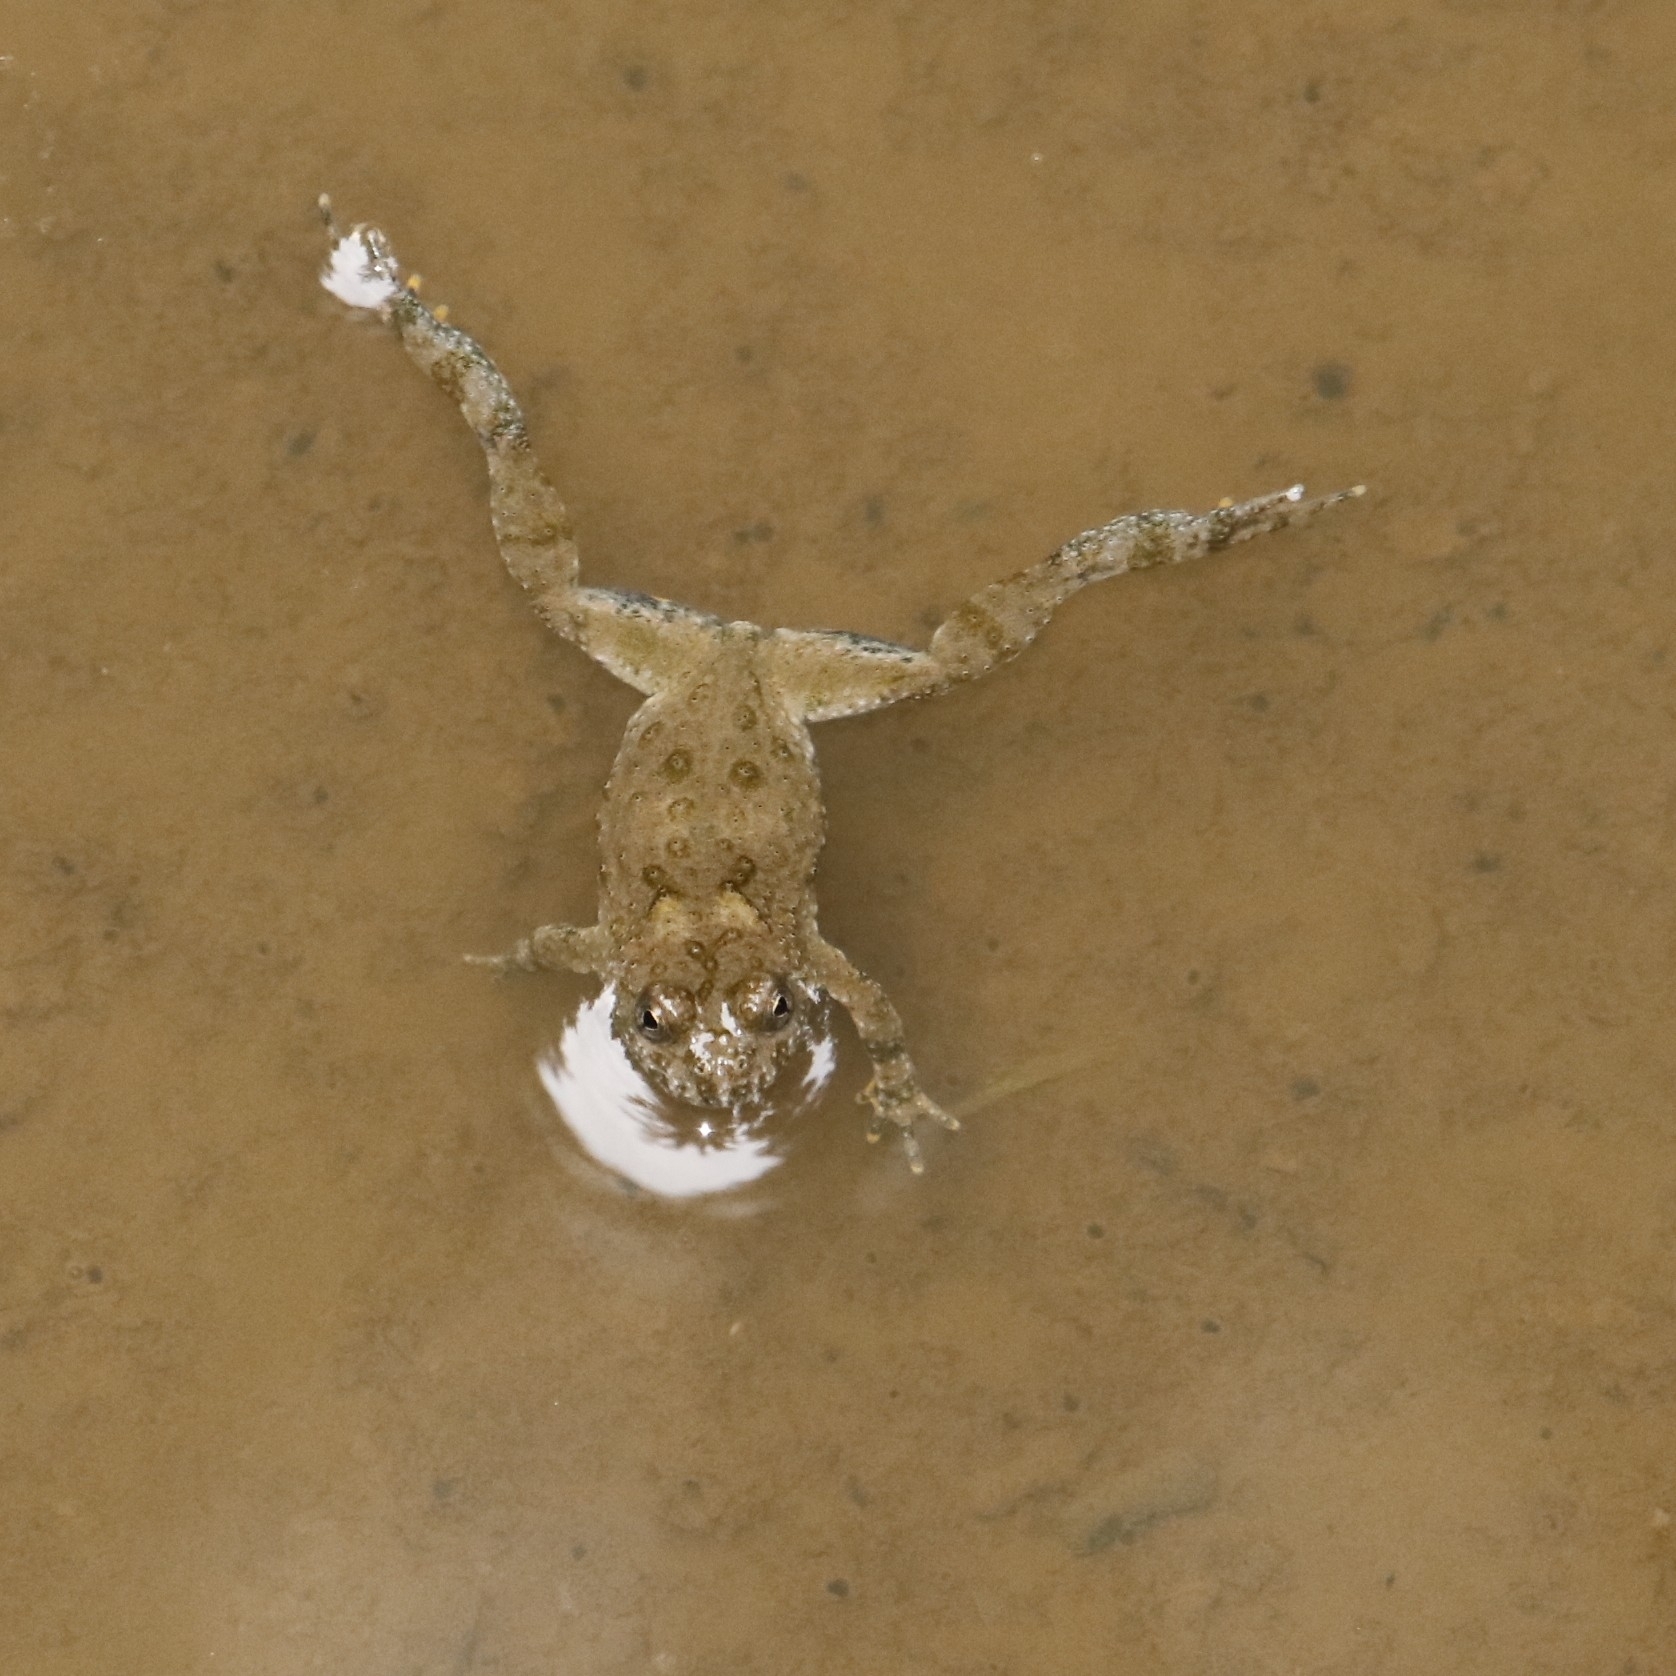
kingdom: Animalia
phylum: Chordata
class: Amphibia
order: Anura
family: Bombinatoridae
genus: Bombina
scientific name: Bombina variegata
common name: Yellow-bellied toad
